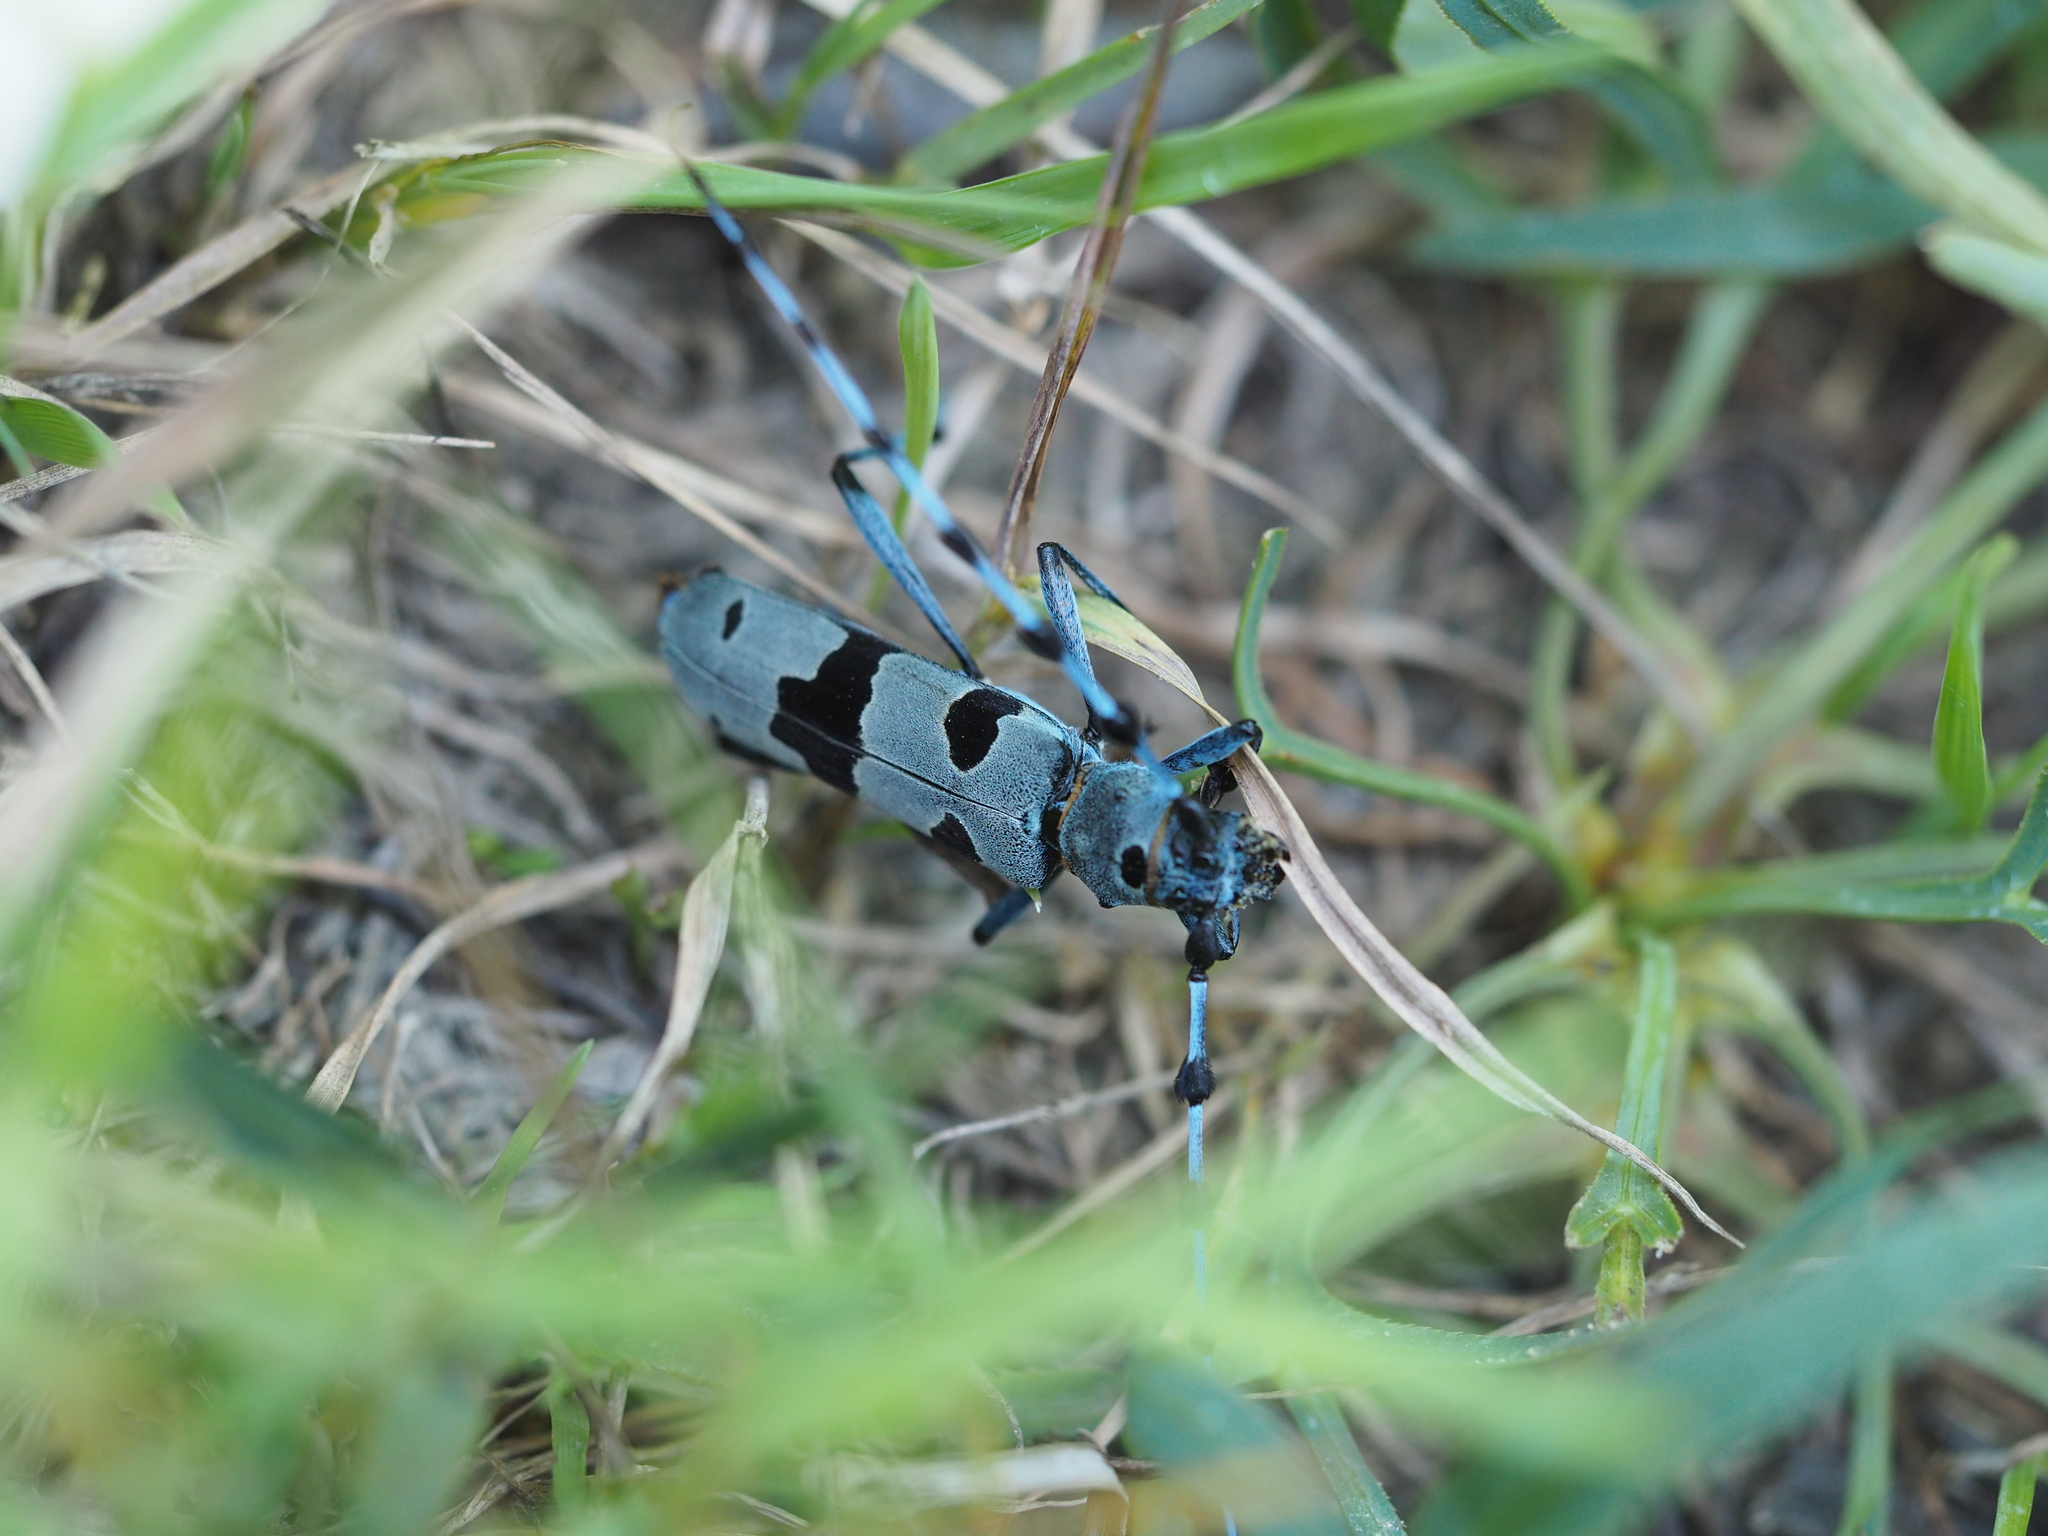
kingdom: Animalia
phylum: Arthropoda
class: Insecta
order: Coleoptera
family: Cerambycidae
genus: Rosalia
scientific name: Rosalia alpina
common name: Rosalia longicorn
